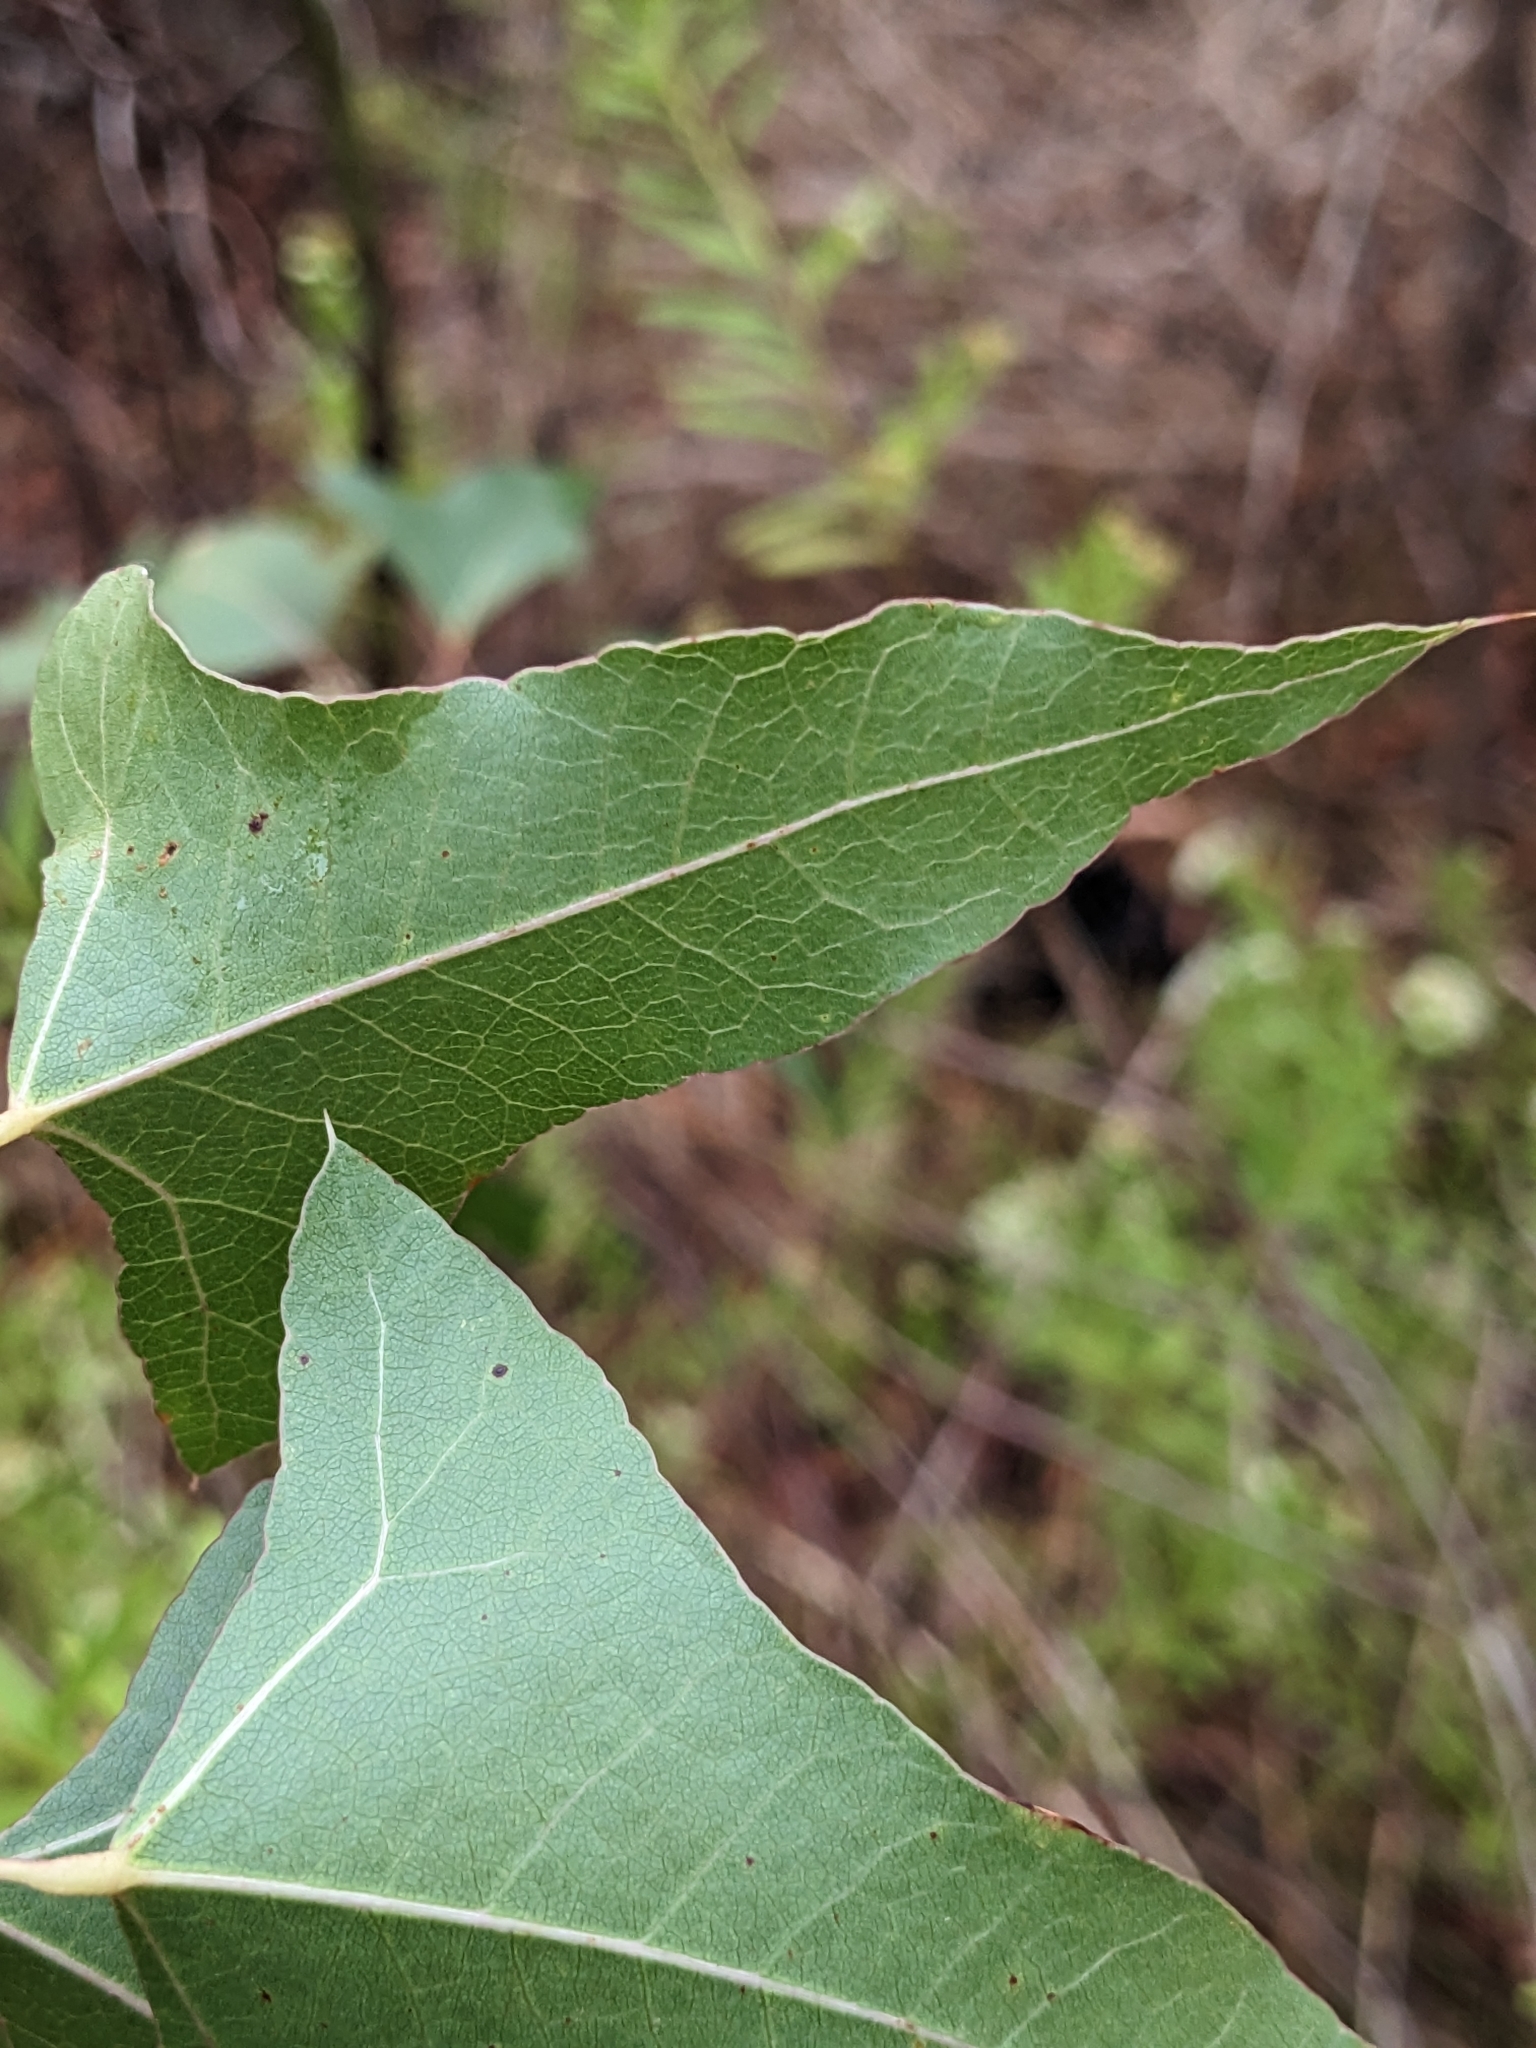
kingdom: Plantae
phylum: Tracheophyta
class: Magnoliopsida
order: Malvales
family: Malvaceae
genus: Brachychiton
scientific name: Brachychiton populneus
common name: Kurrajong
